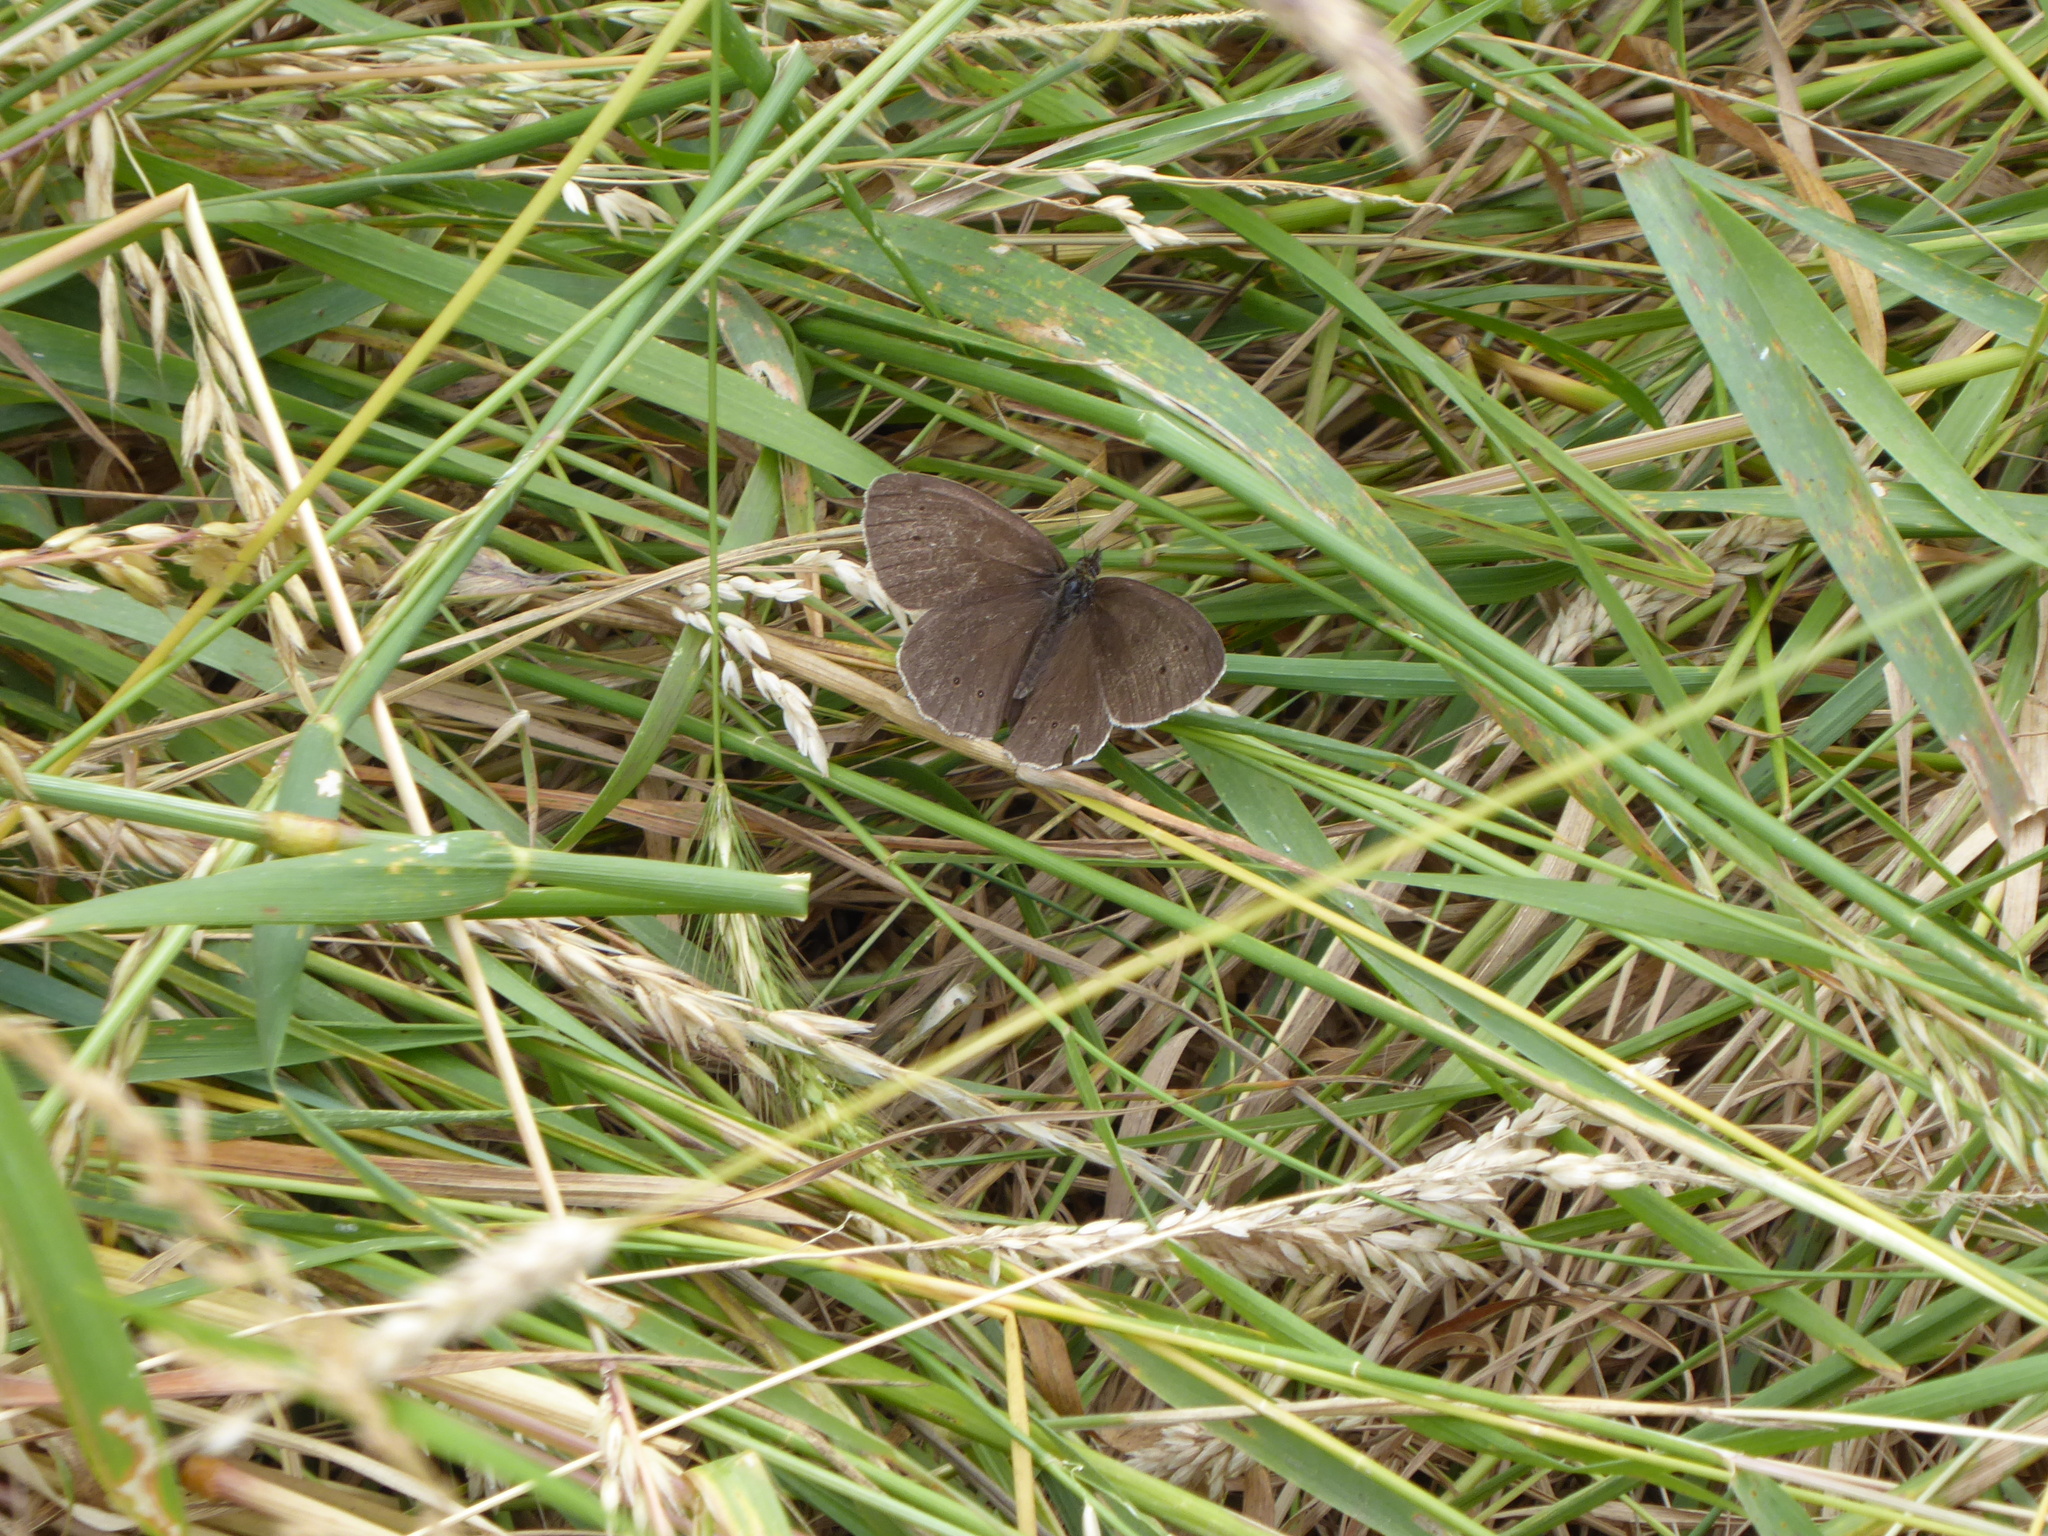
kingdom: Animalia
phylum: Arthropoda
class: Insecta
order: Lepidoptera
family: Nymphalidae
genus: Aphantopus
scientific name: Aphantopus hyperantus
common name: Ringlet
